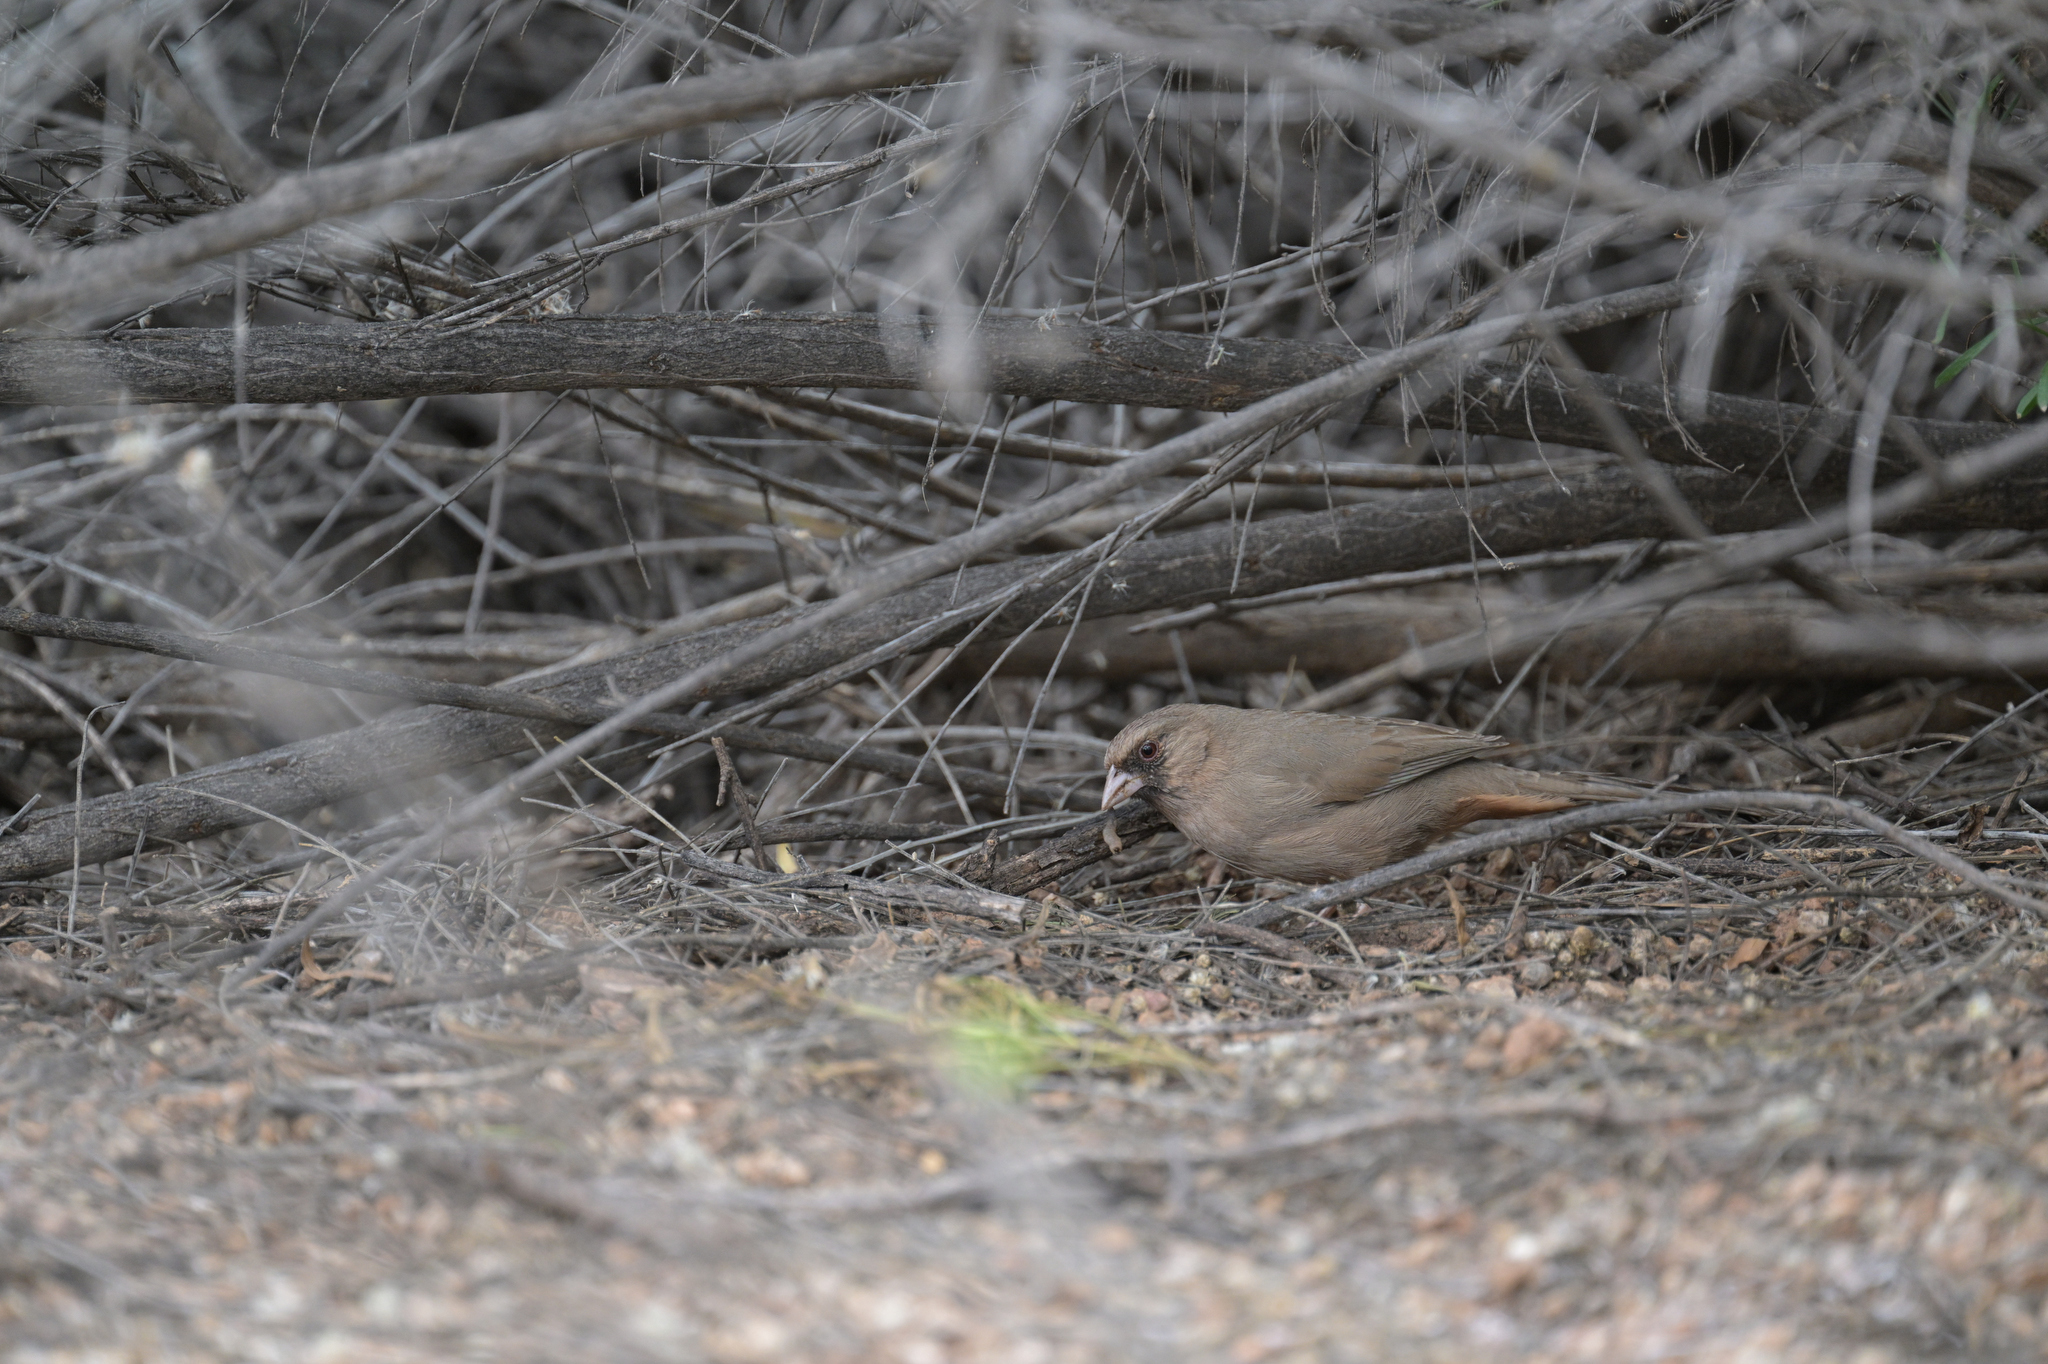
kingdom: Animalia
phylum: Chordata
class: Aves
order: Passeriformes
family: Passerellidae
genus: Melozone
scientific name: Melozone aberti
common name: Abert's towhee
